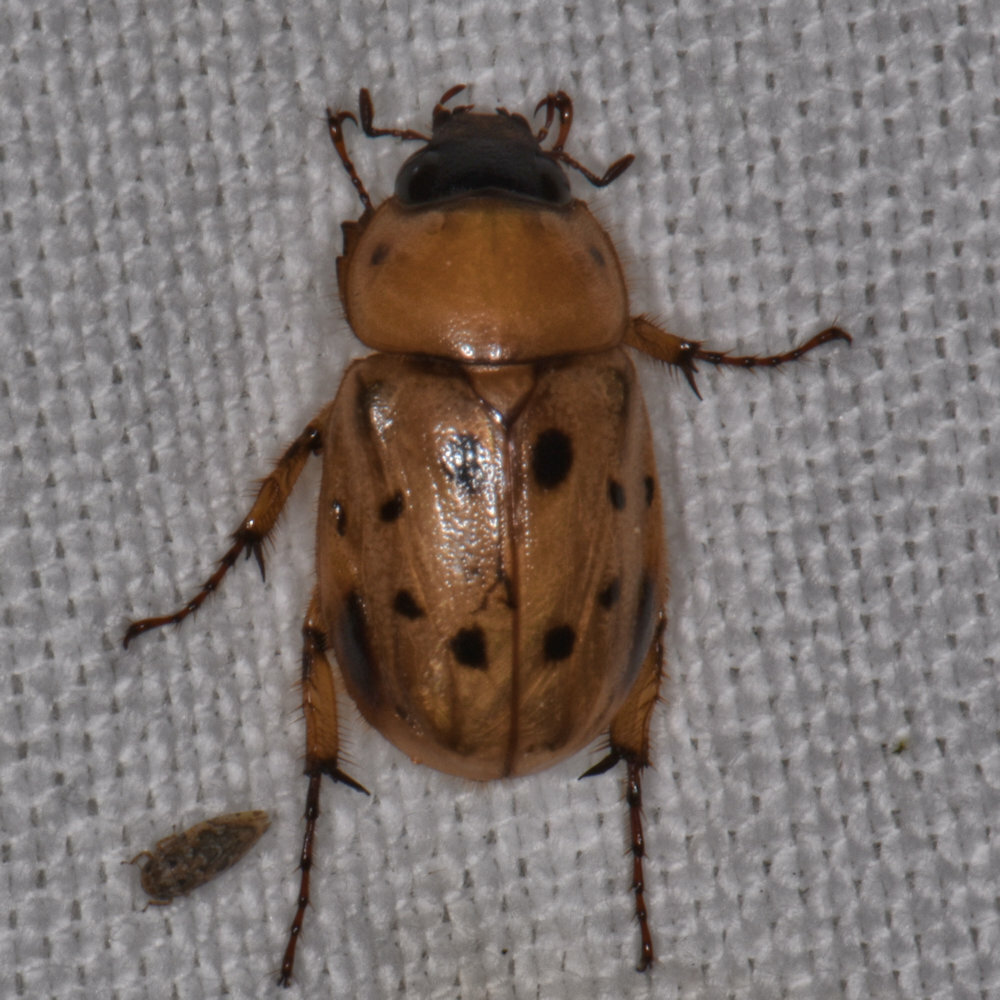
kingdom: Animalia
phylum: Arthropoda
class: Insecta
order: Coleoptera
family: Scarabaeidae
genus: Cyclocephala
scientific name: Cyclocephala brittoni
